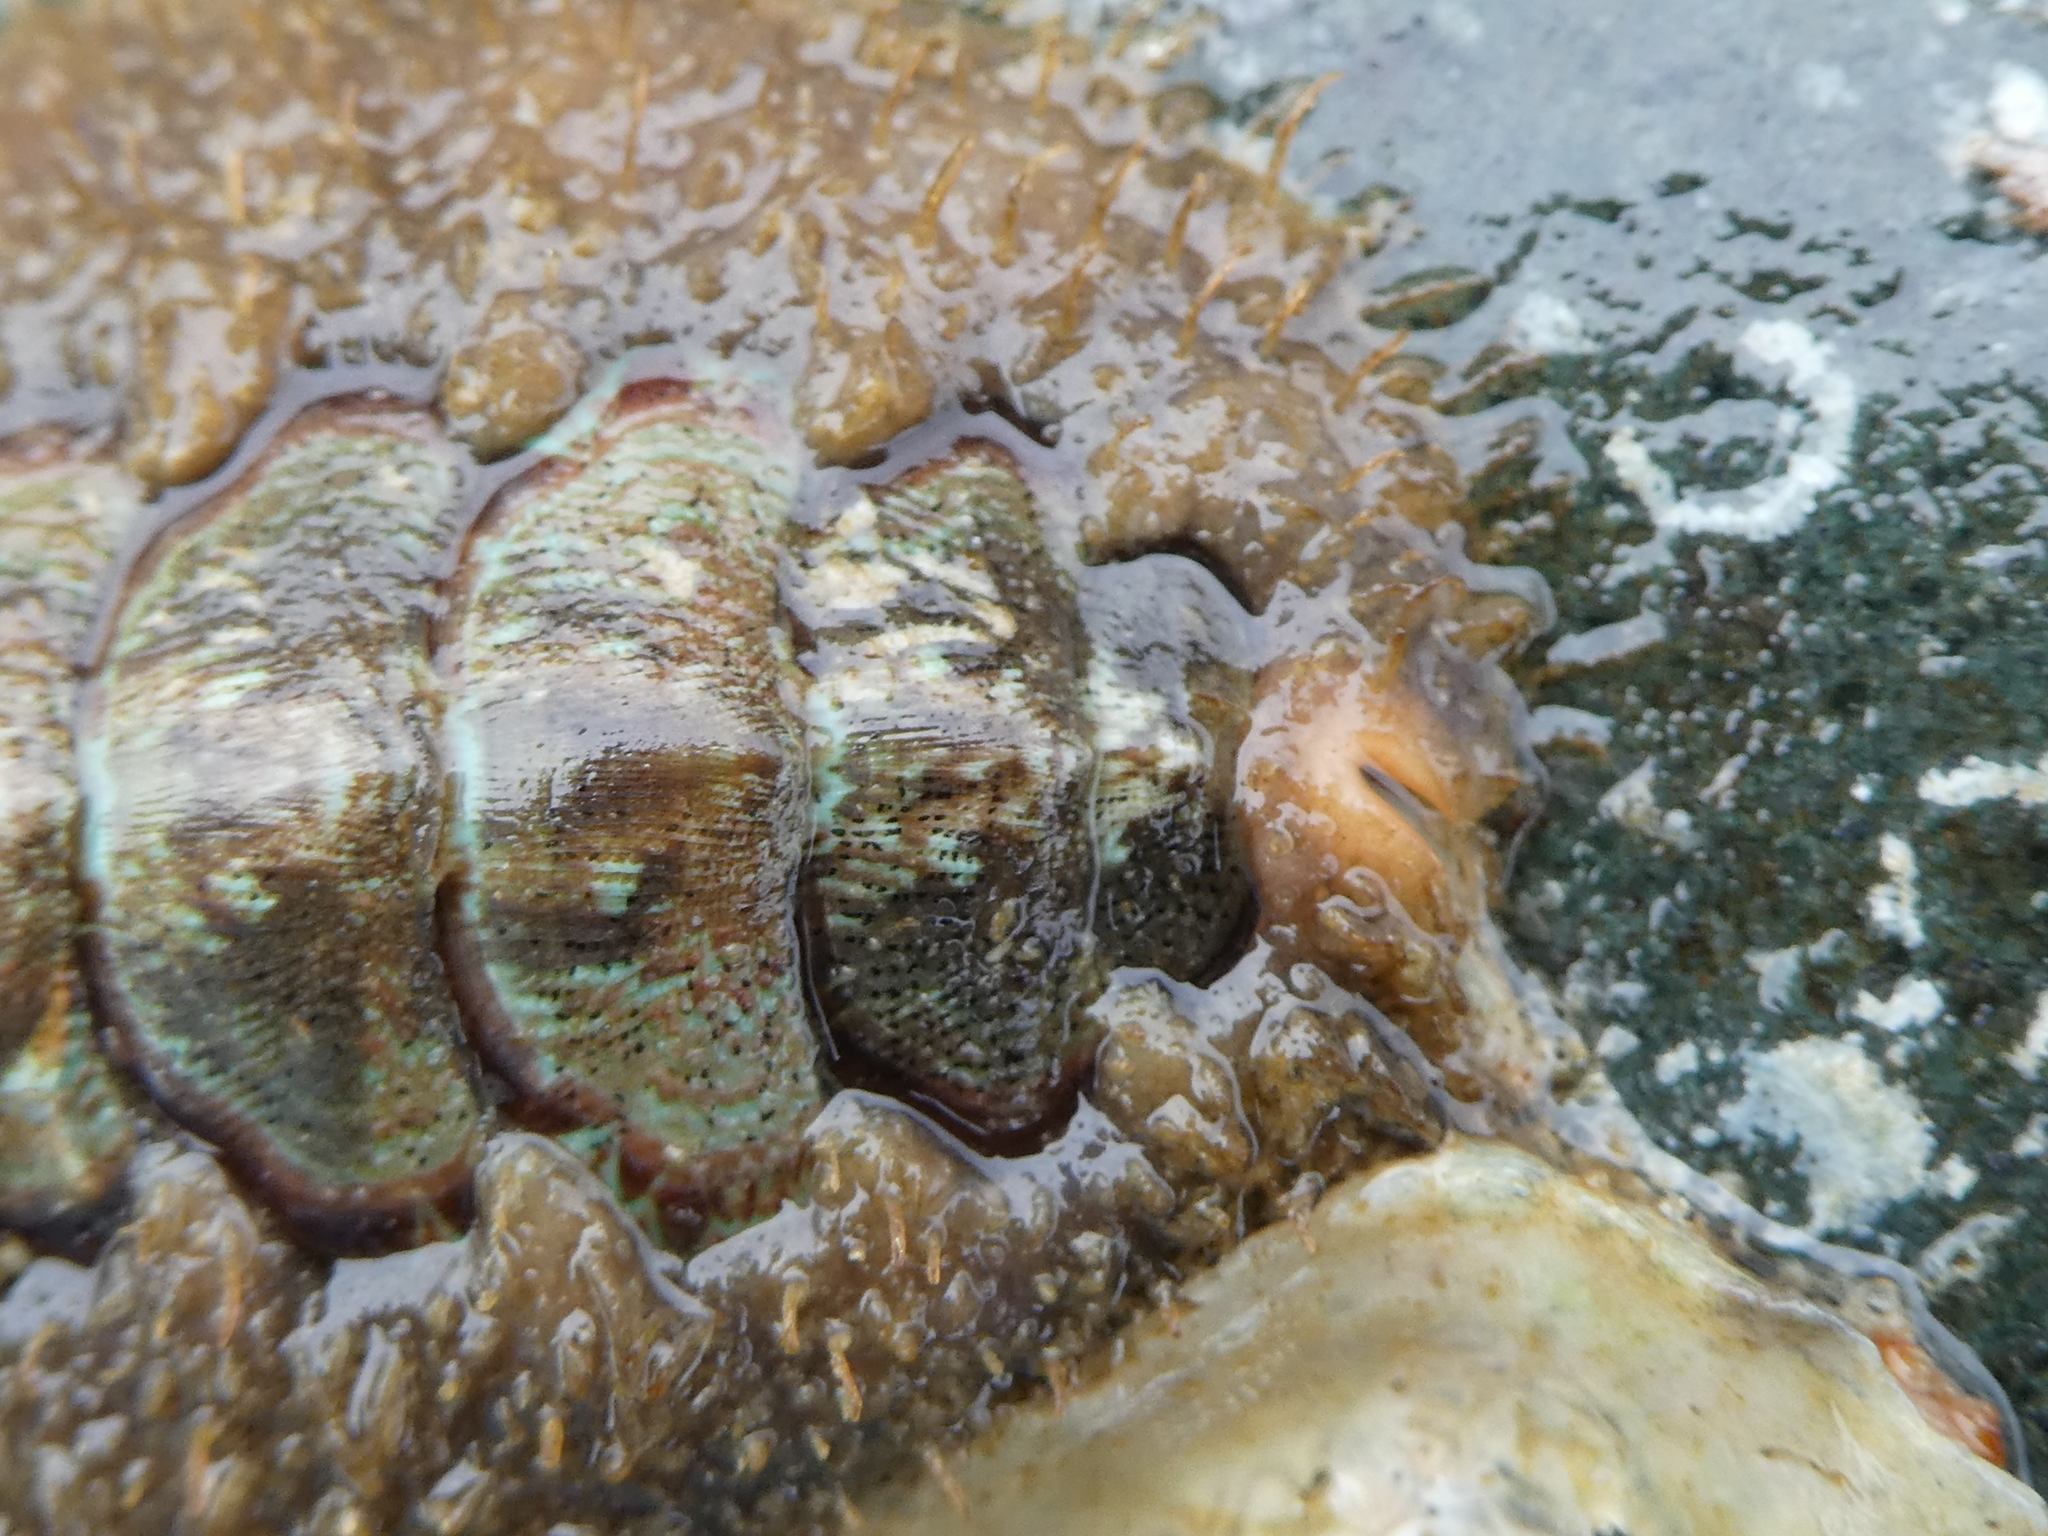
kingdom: Animalia
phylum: Mollusca
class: Polyplacophora
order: Chitonida
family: Mopaliidae
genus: Mopalia
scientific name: Mopalia ciliata
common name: Hairy chiton
